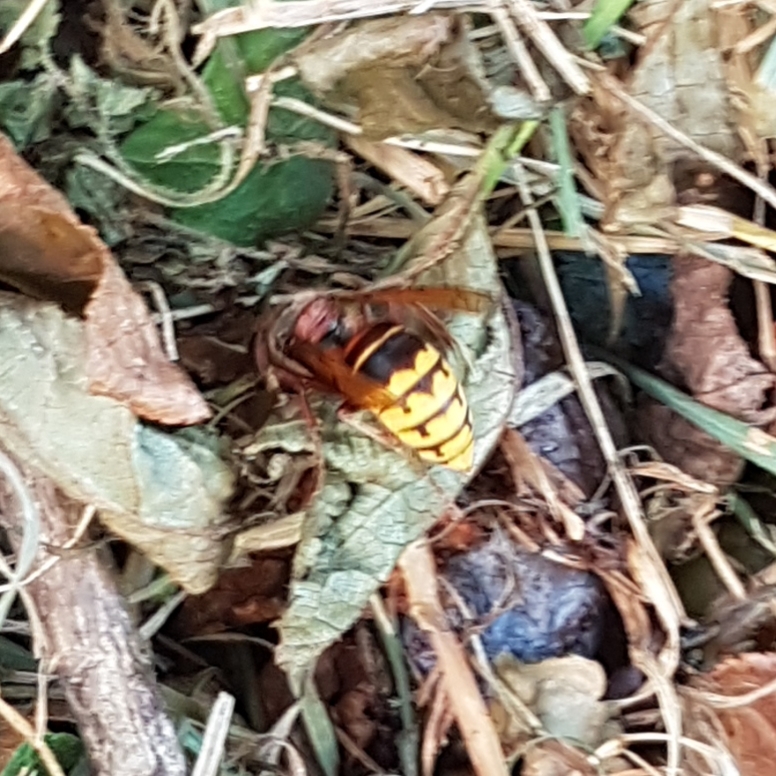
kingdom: Animalia
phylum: Arthropoda
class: Insecta
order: Hymenoptera
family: Vespidae
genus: Vespa
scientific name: Vespa crabro
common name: Hornet
